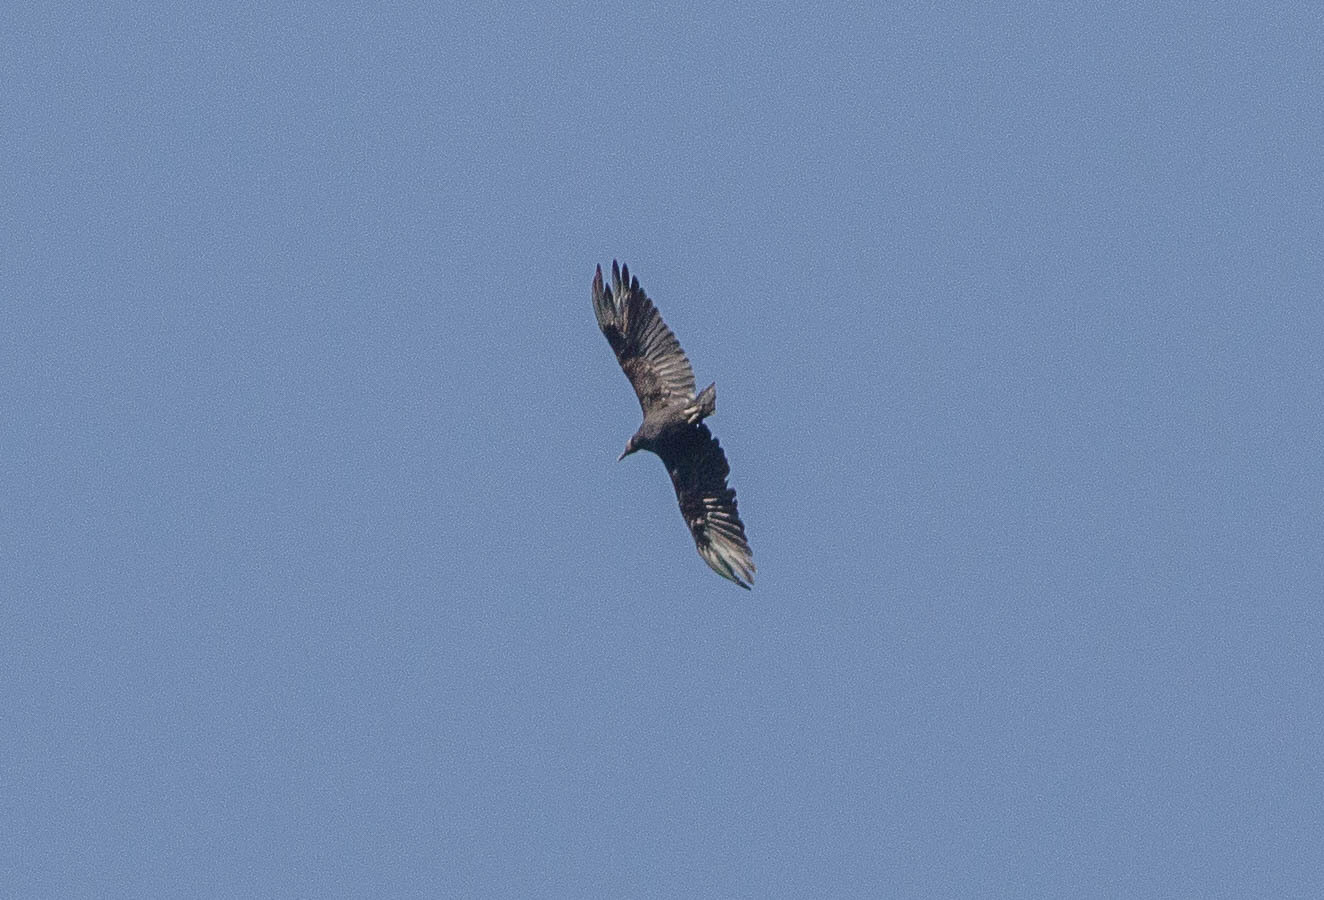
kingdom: Animalia
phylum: Chordata
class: Aves
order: Accipitriformes
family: Cathartidae
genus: Coragyps
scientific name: Coragyps atratus
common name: Black vulture
